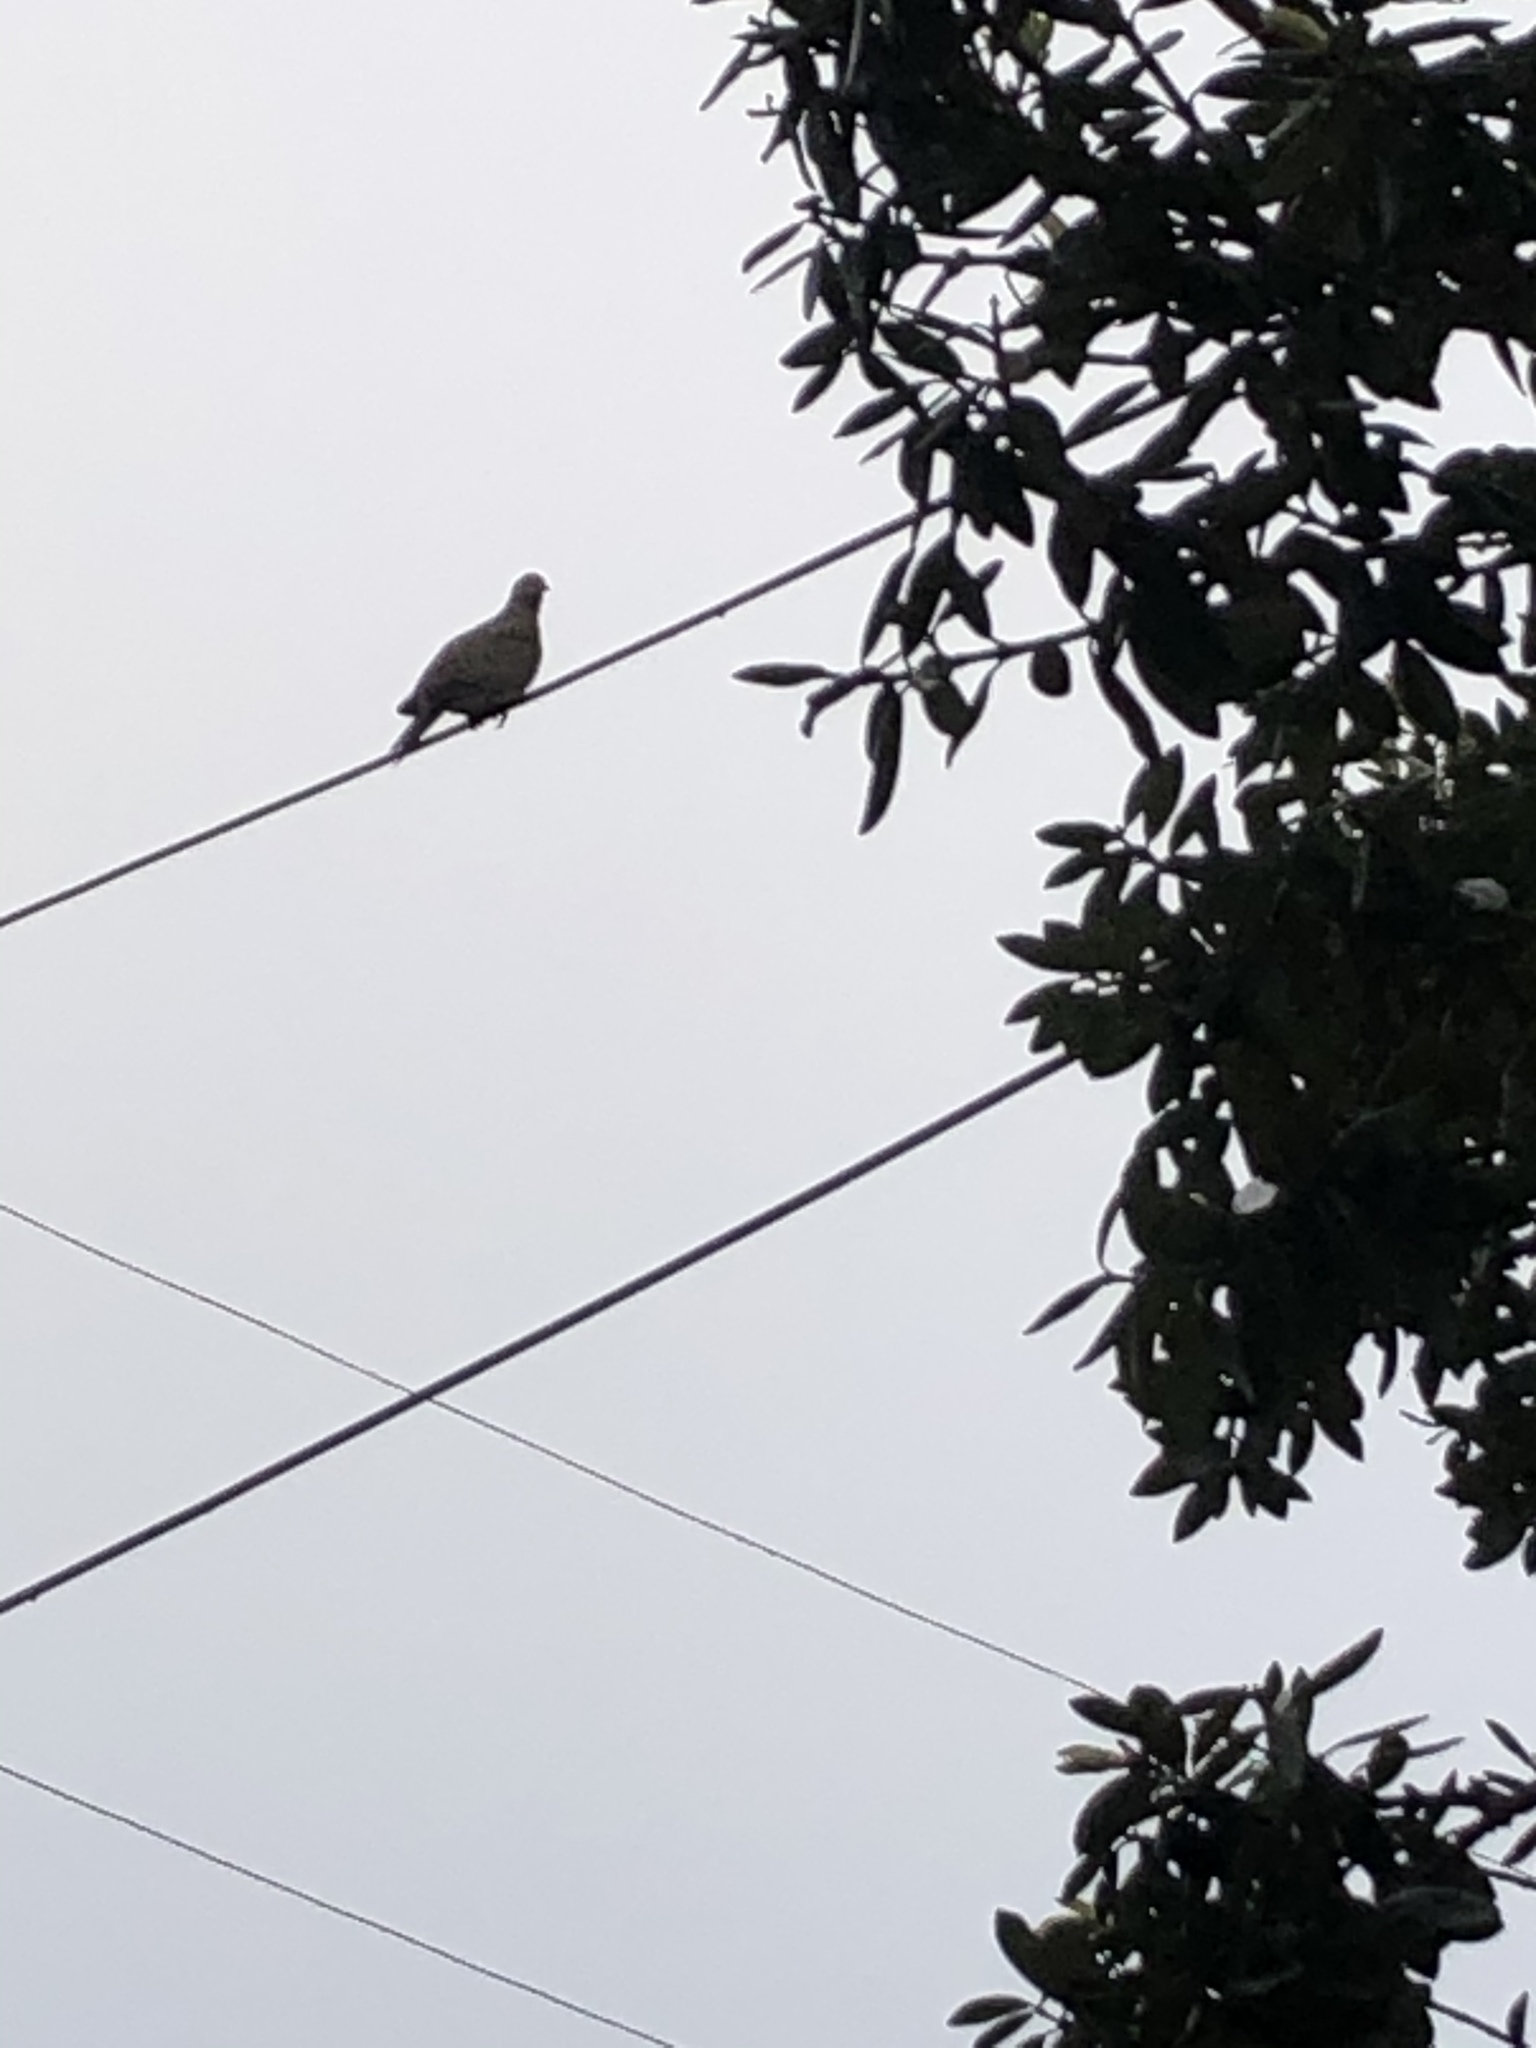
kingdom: Animalia
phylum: Chordata
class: Aves
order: Columbiformes
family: Columbidae
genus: Zenaida
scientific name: Zenaida macroura
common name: Mourning dove
